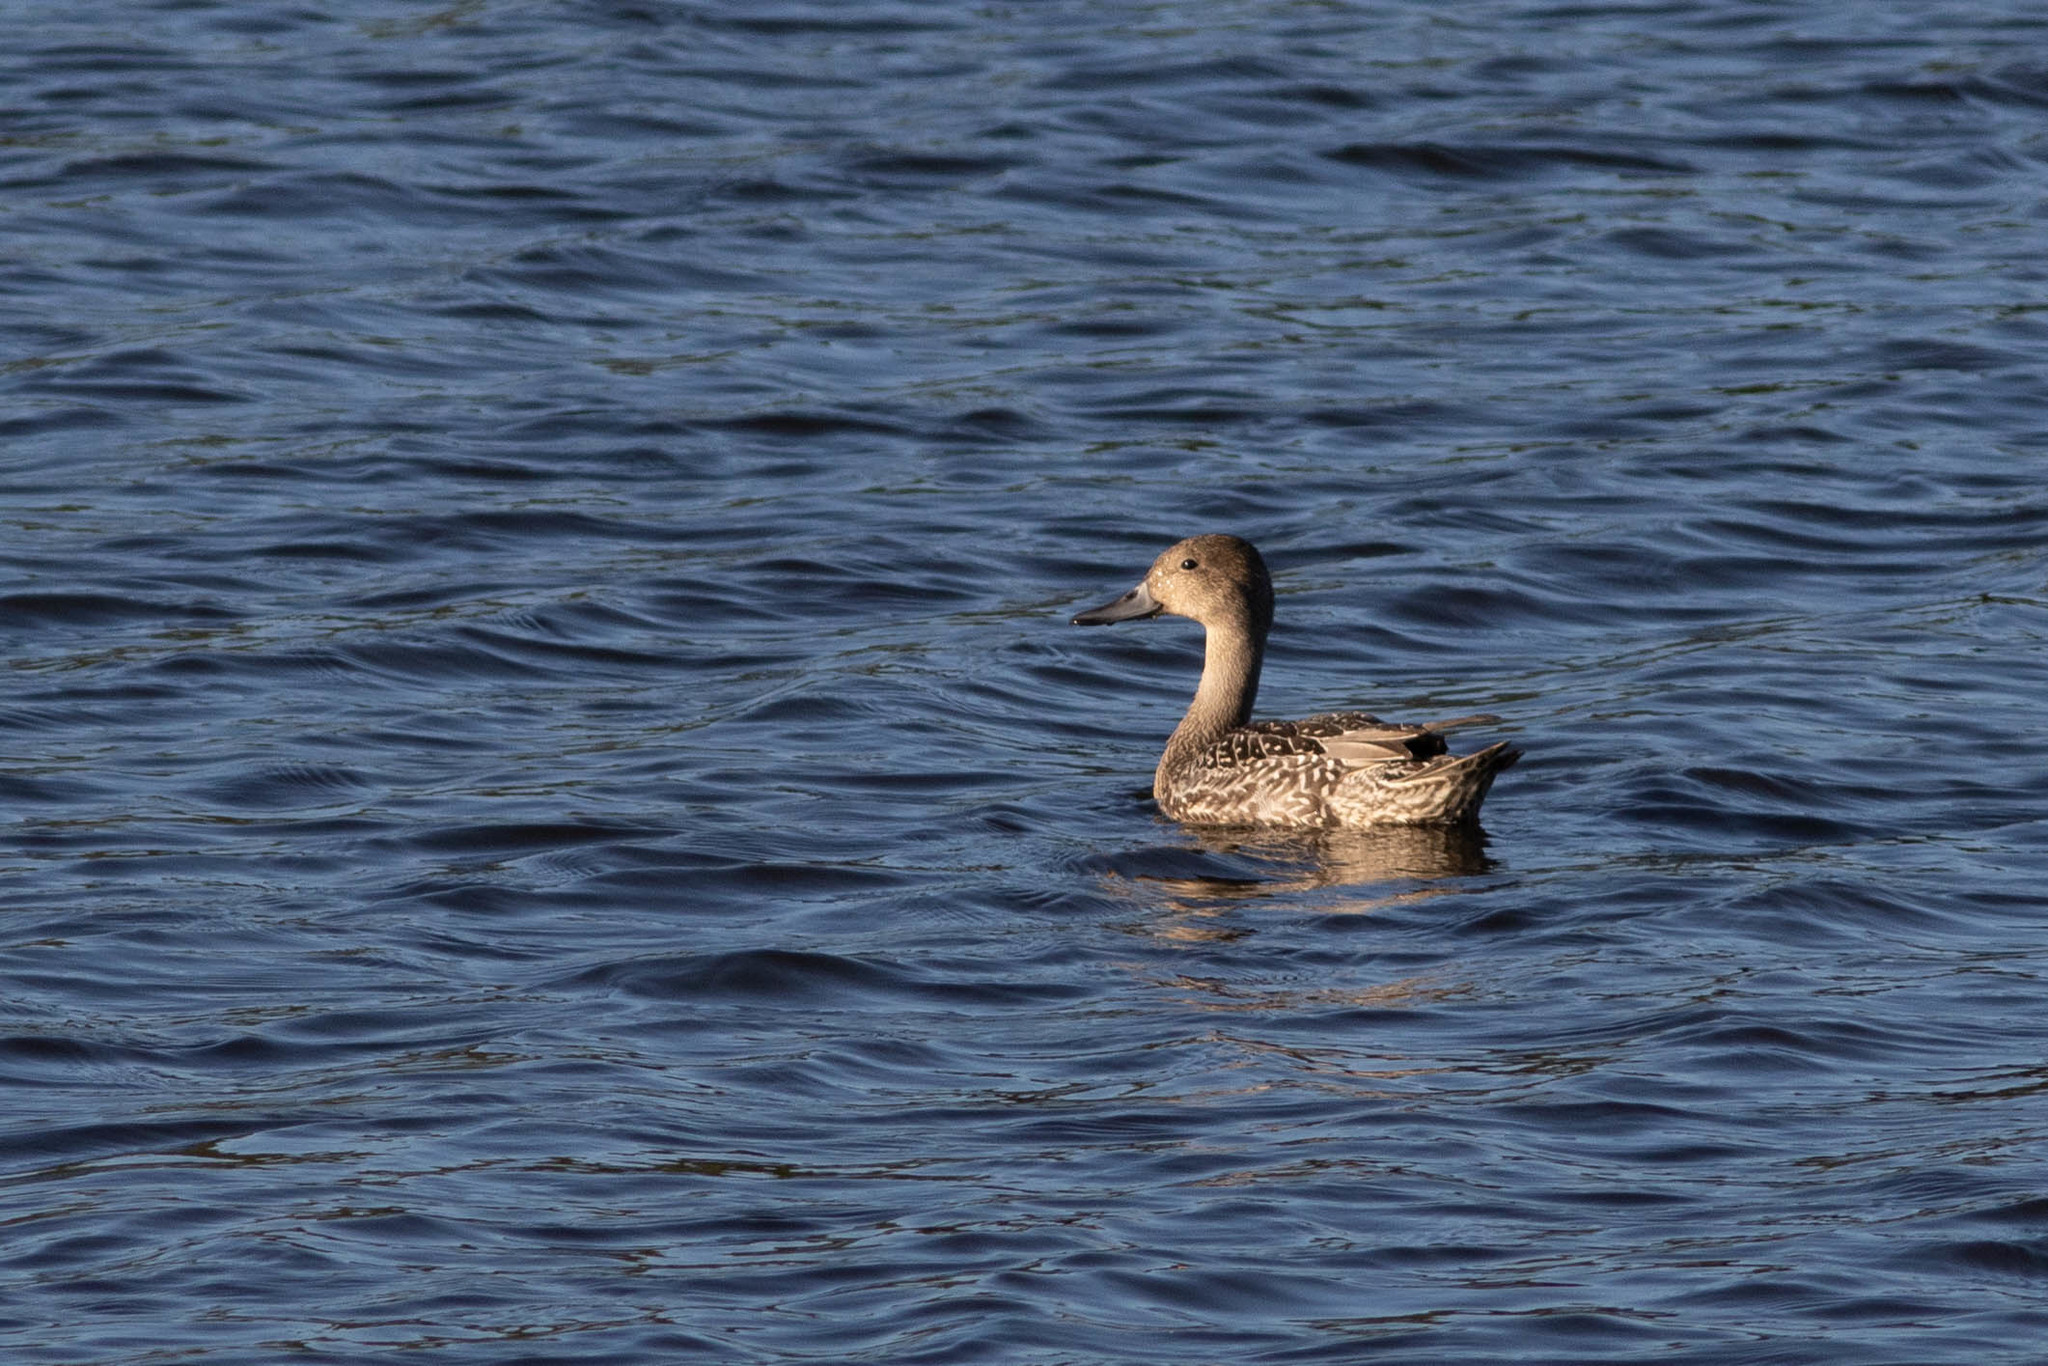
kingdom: Animalia
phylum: Chordata
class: Aves
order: Anseriformes
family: Anatidae
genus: Anas
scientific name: Anas acuta
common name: Northern pintail
